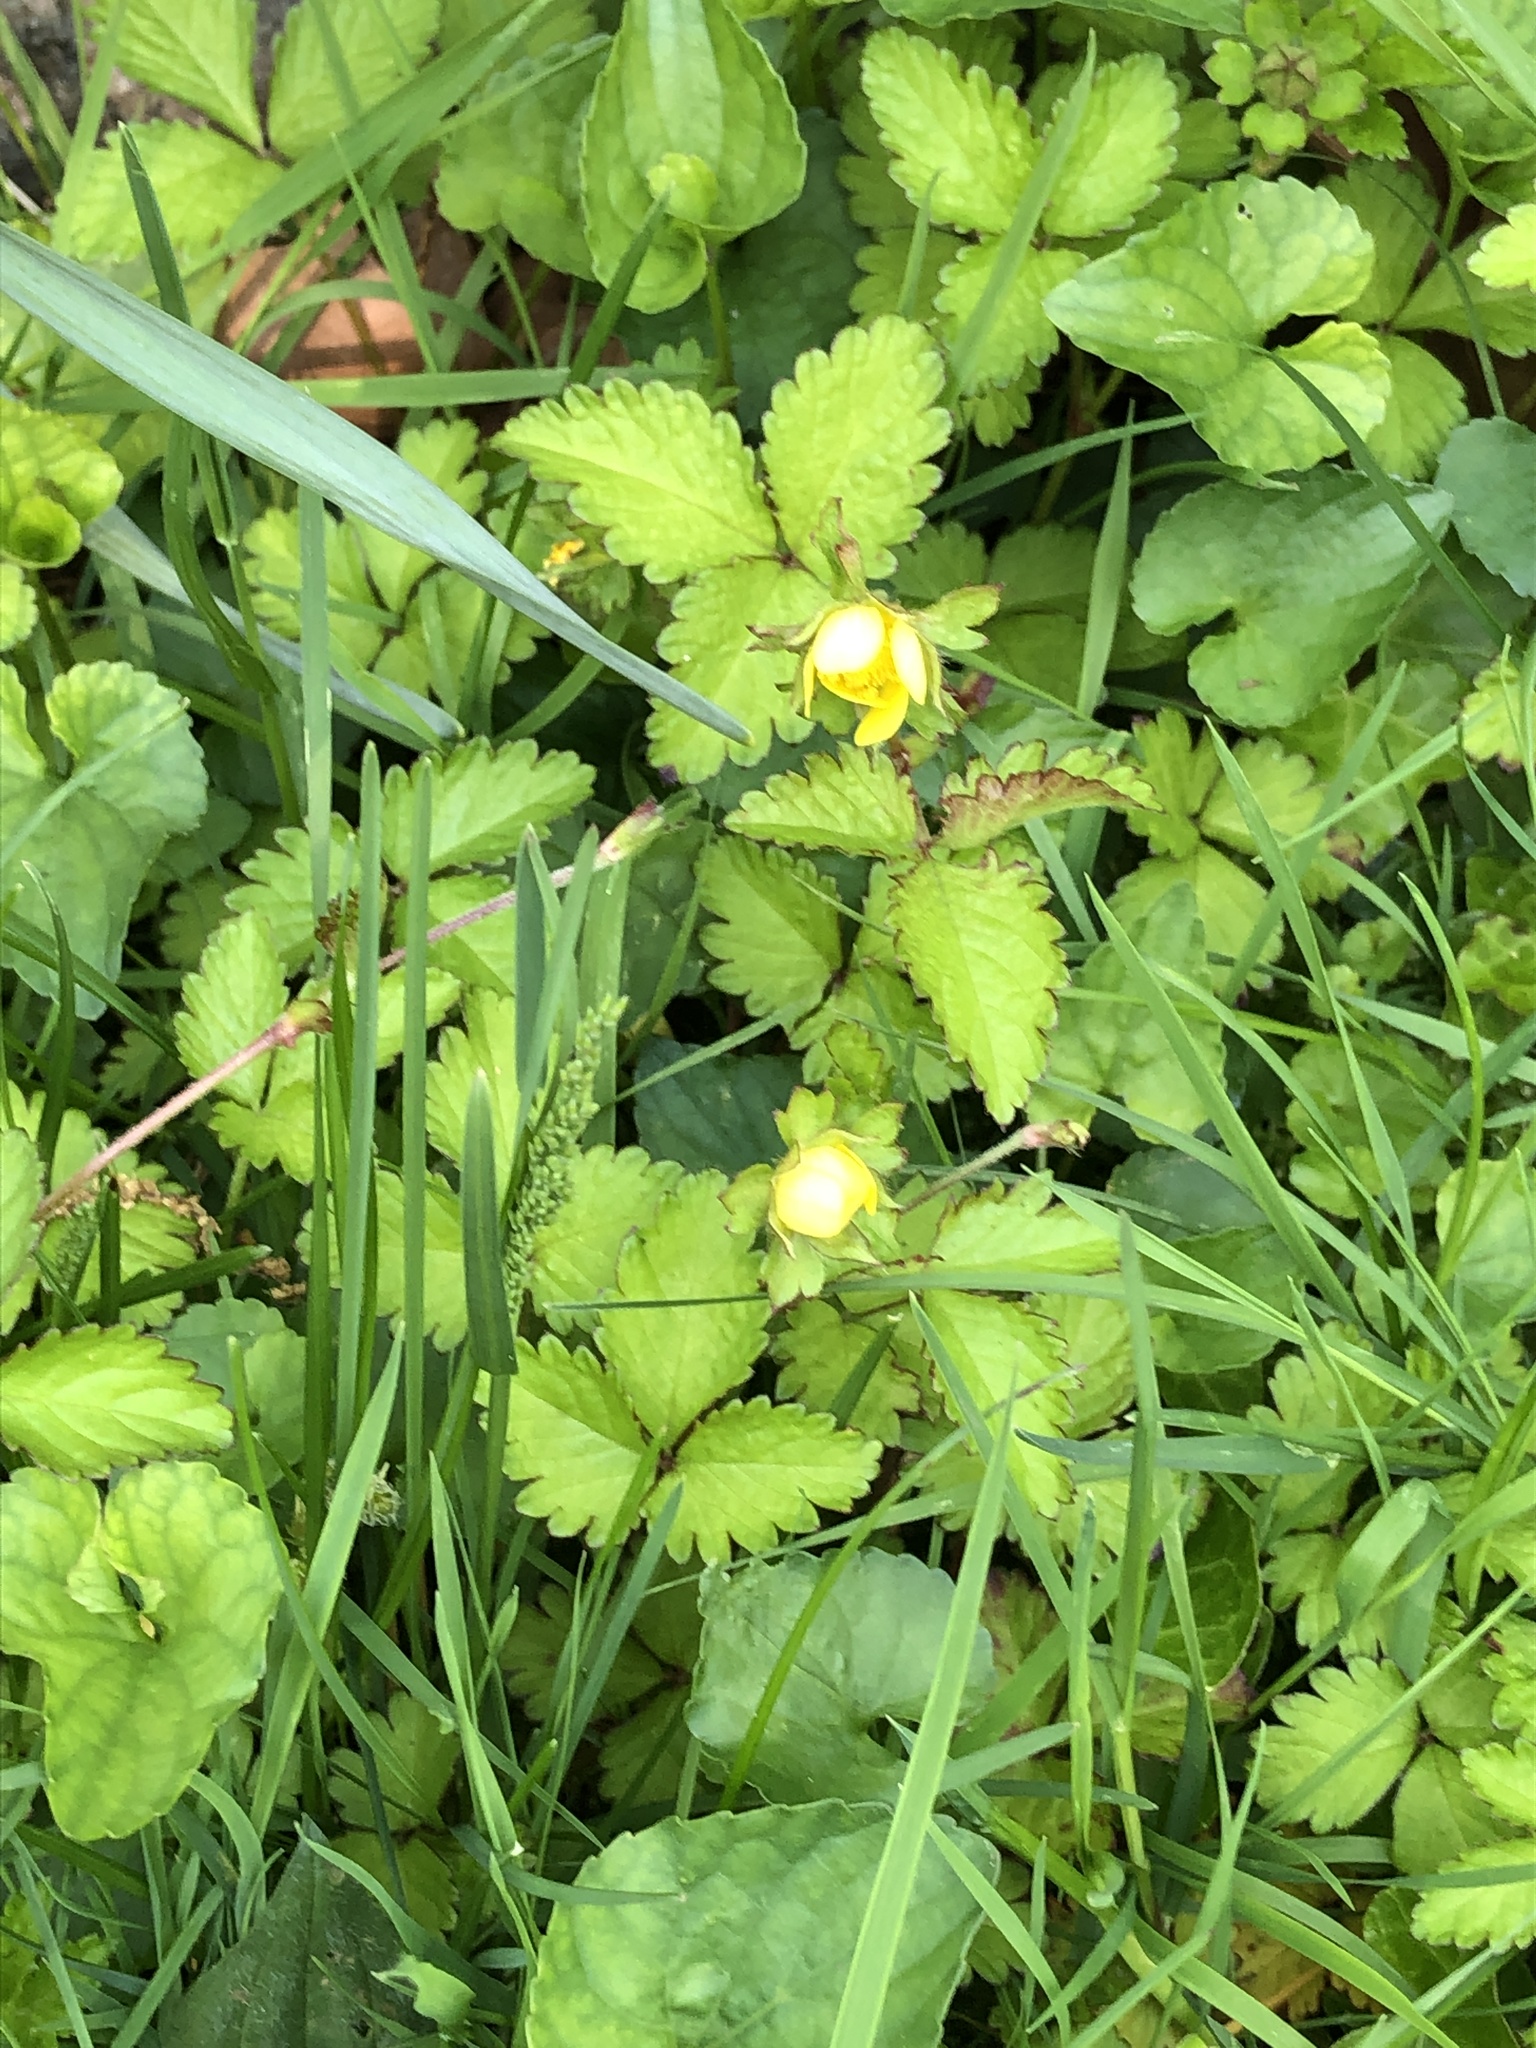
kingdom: Plantae
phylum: Tracheophyta
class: Magnoliopsida
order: Rosales
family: Rosaceae
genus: Potentilla
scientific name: Potentilla indica
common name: Yellow-flowered strawberry
